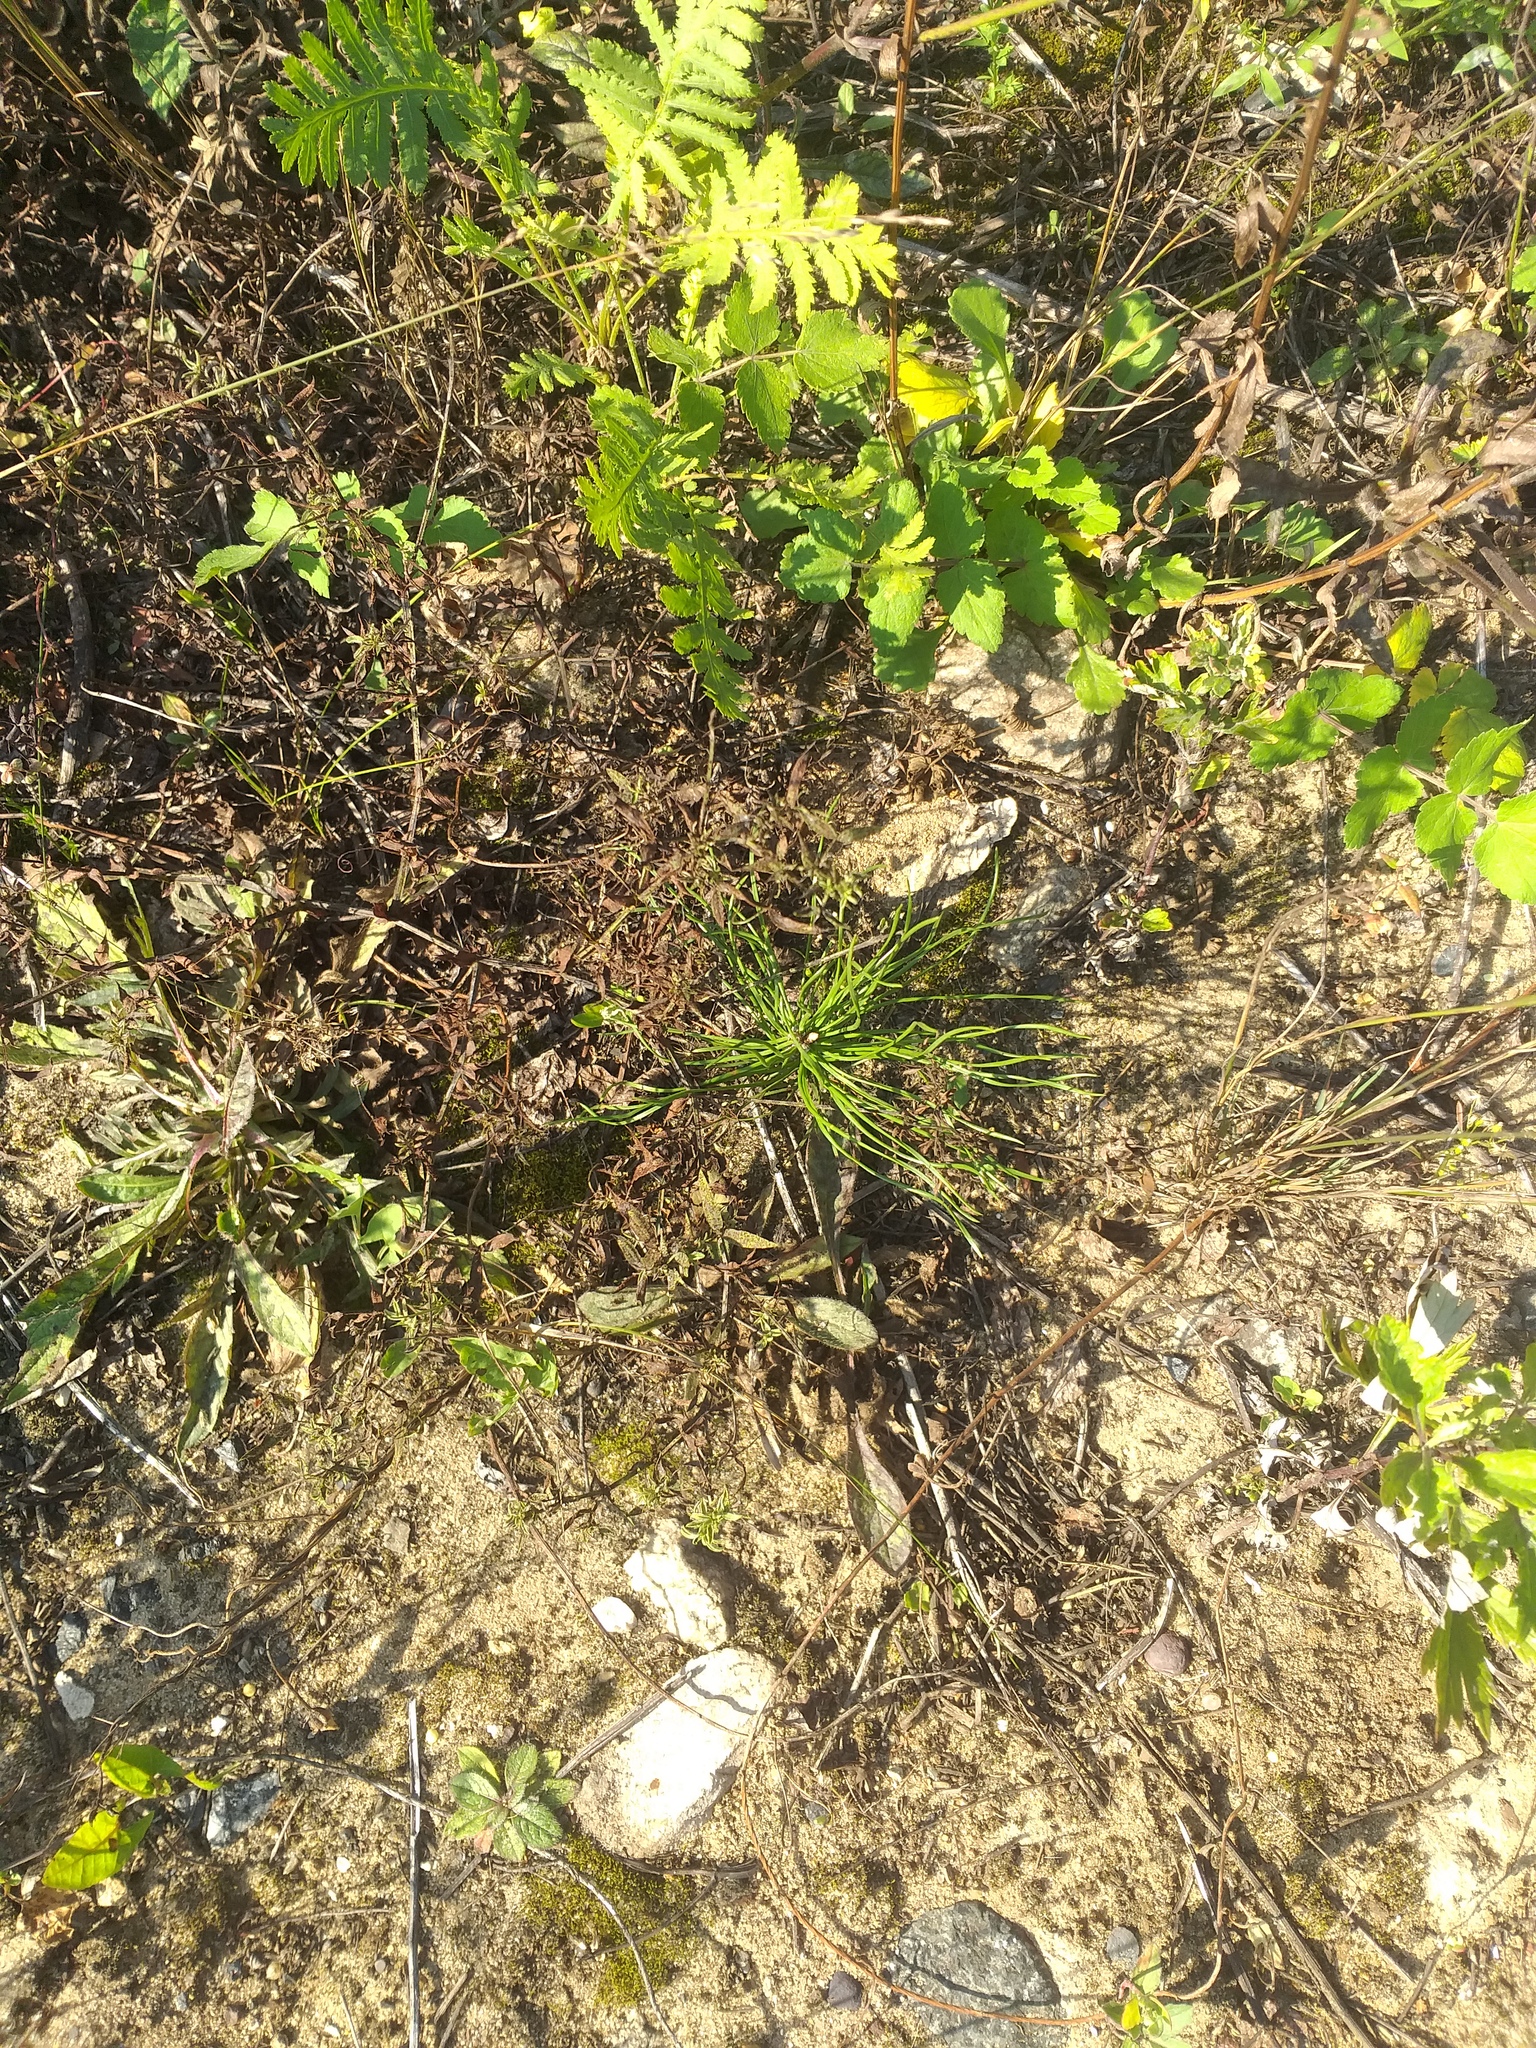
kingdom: Plantae
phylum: Tracheophyta
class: Pinopsida
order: Pinales
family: Pinaceae
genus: Pinus
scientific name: Pinus sylvestris
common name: Scots pine
